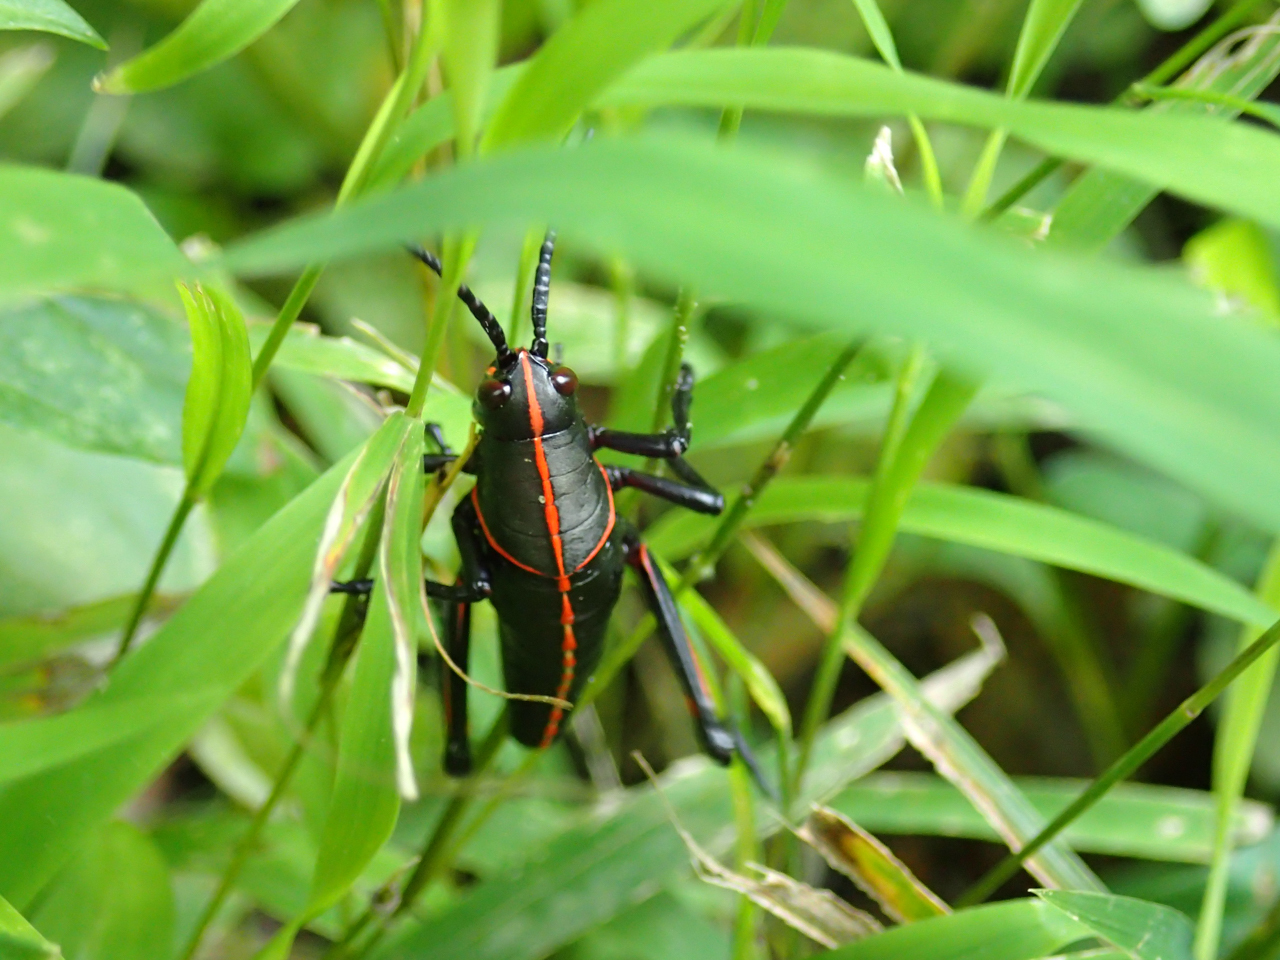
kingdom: Animalia
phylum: Arthropoda
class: Insecta
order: Orthoptera
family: Romaleidae
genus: Romalea
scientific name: Romalea microptera
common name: Eastern lubber grasshopper
